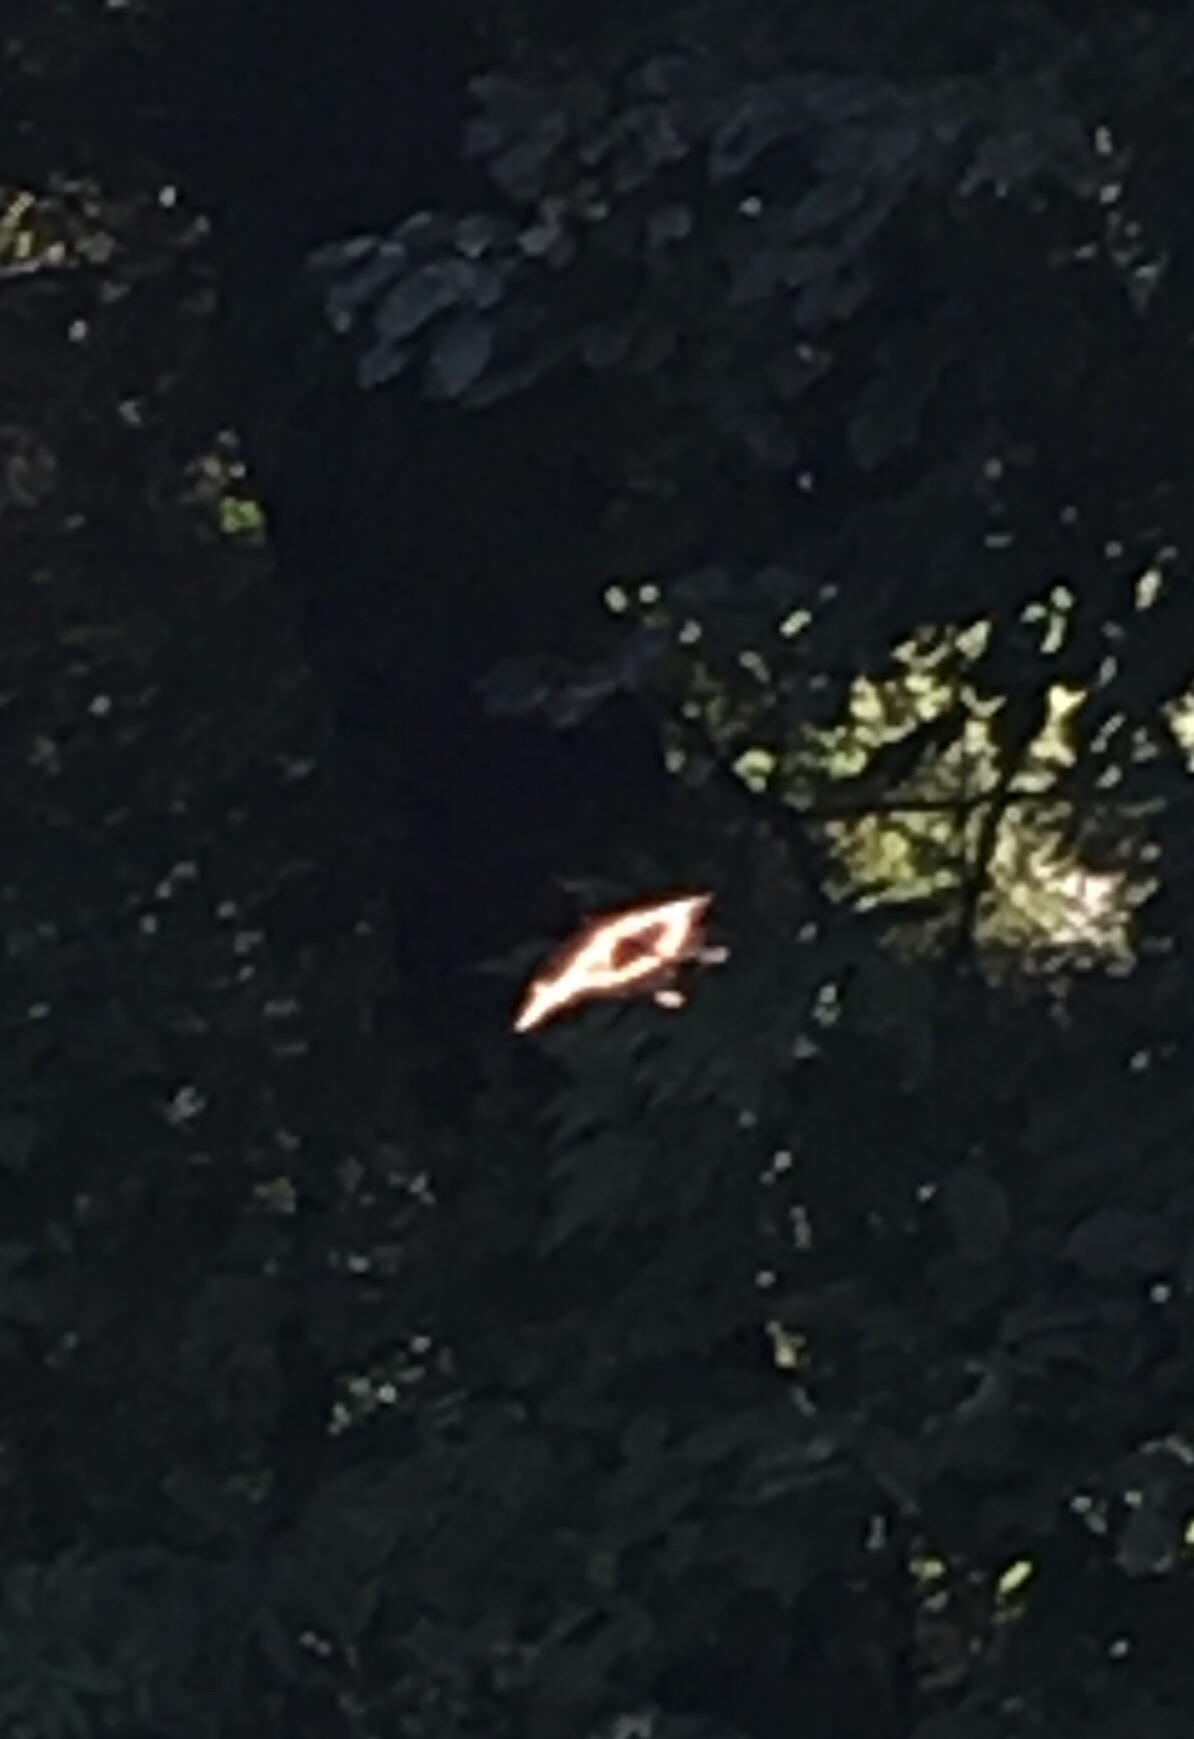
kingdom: Animalia
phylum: Arthropoda
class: Insecta
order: Lepidoptera
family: Papilionidae
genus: Papilio
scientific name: Papilio cresphontes
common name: Giant swallowtail
